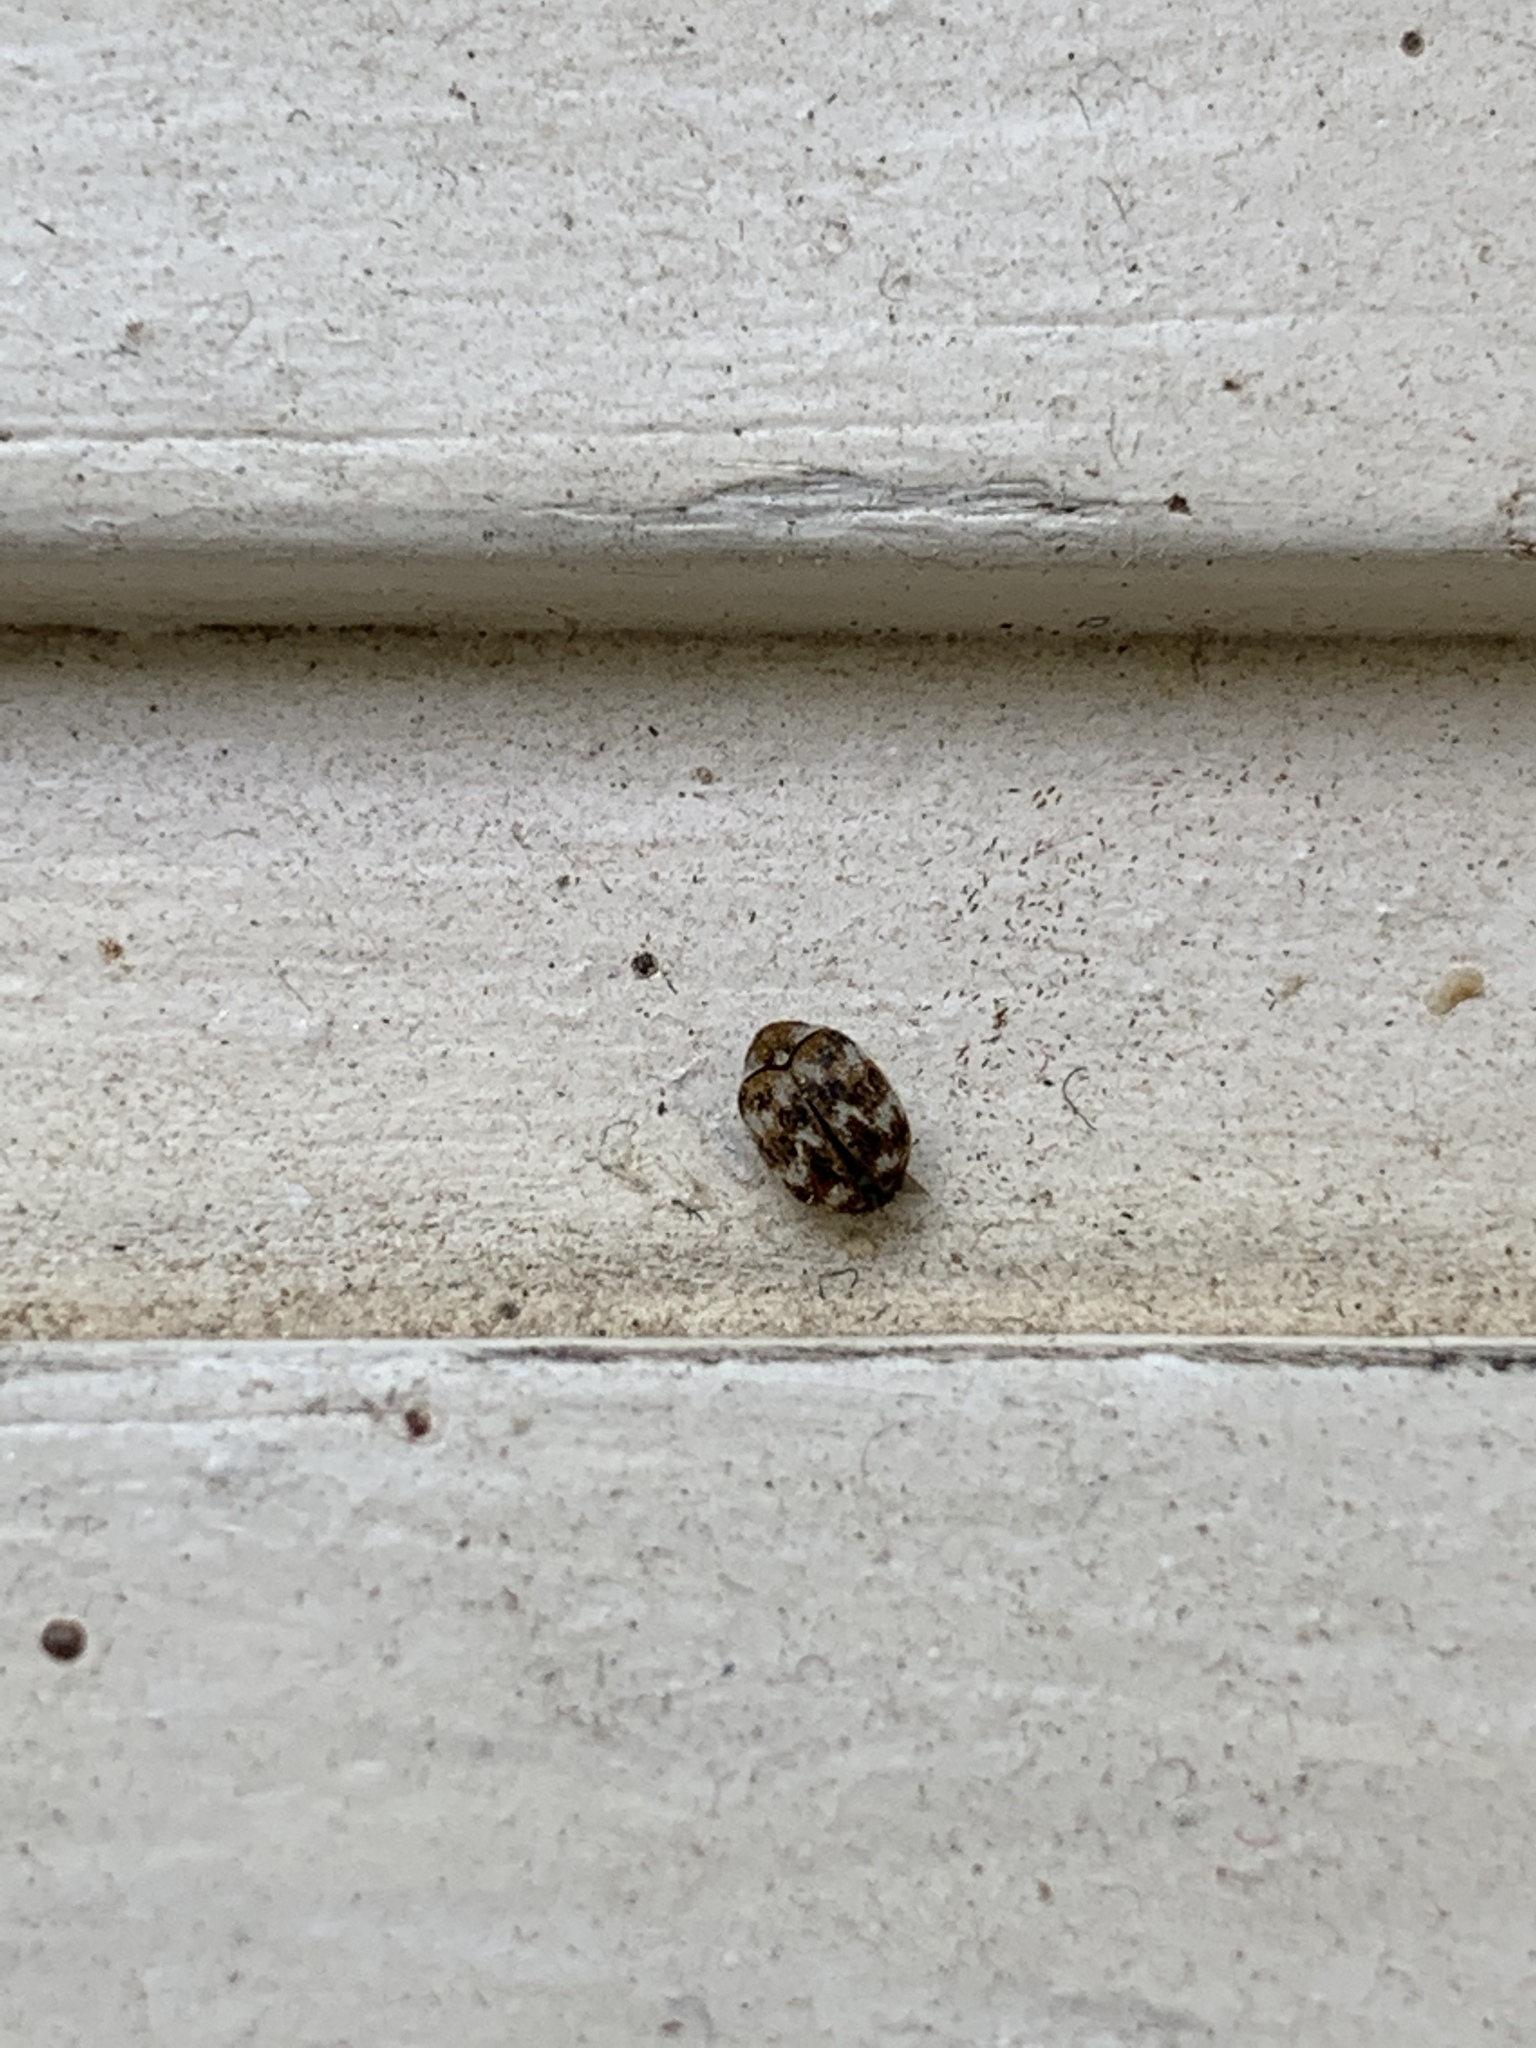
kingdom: Animalia
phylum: Arthropoda
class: Insecta
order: Coleoptera
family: Dermestidae
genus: Anthrenus
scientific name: Anthrenus verbasci
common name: Varied carpet beetle
